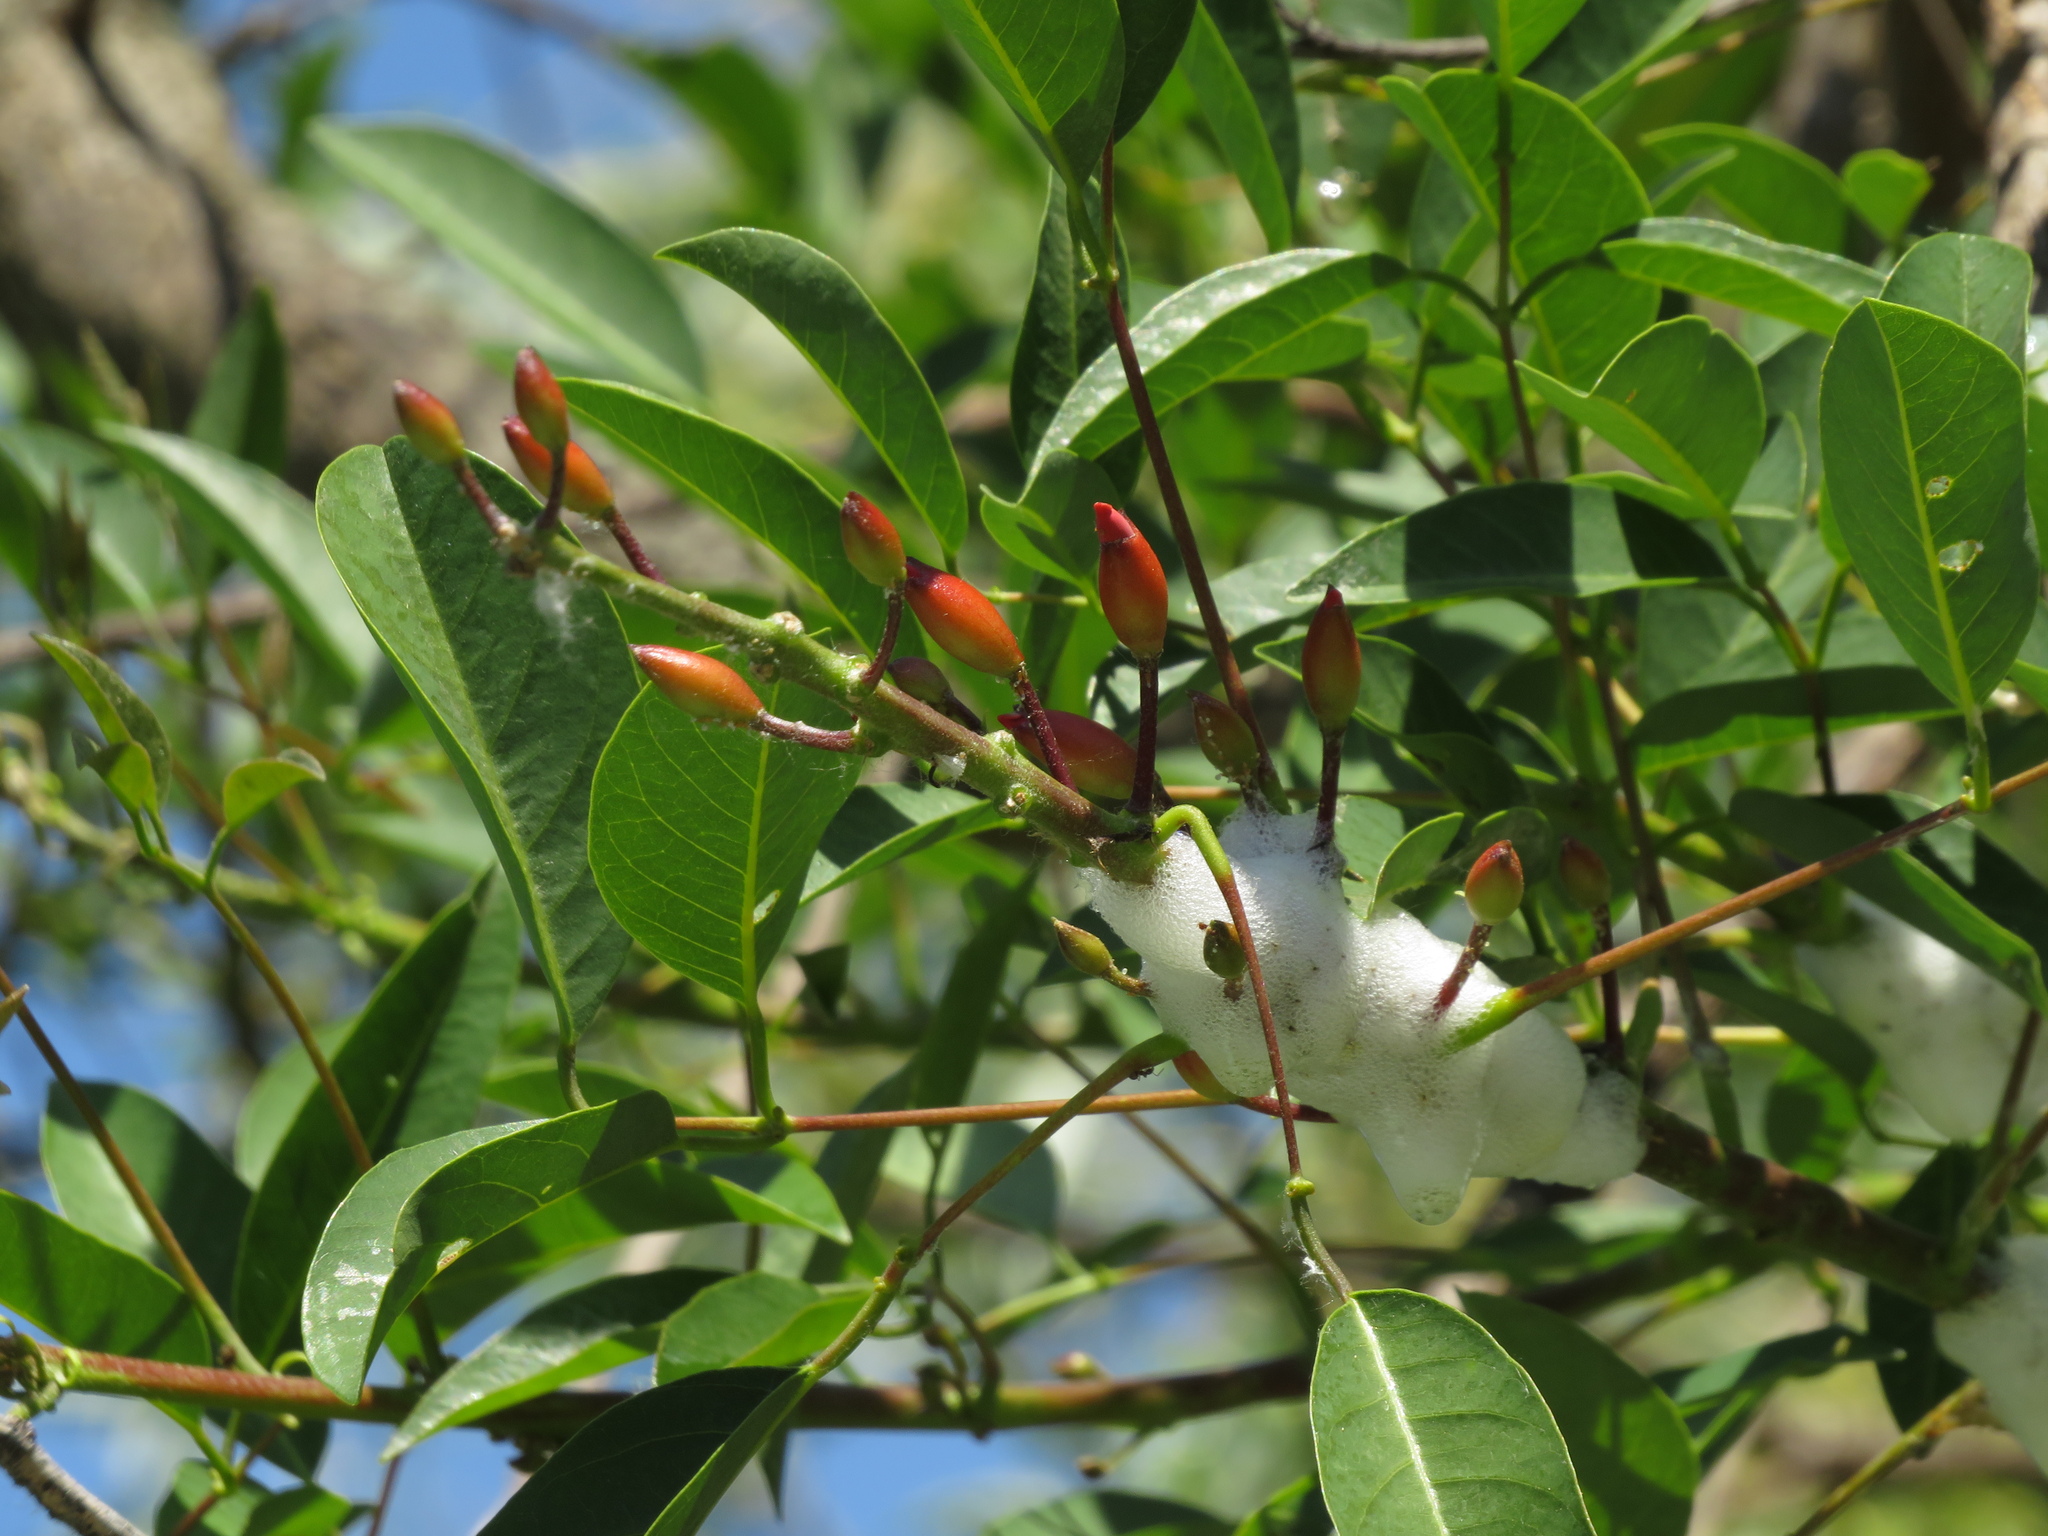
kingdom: Plantae
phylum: Tracheophyta
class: Magnoliopsida
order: Fabales
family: Fabaceae
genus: Erythrina
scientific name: Erythrina crista-galli
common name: Cockspur coral tree
